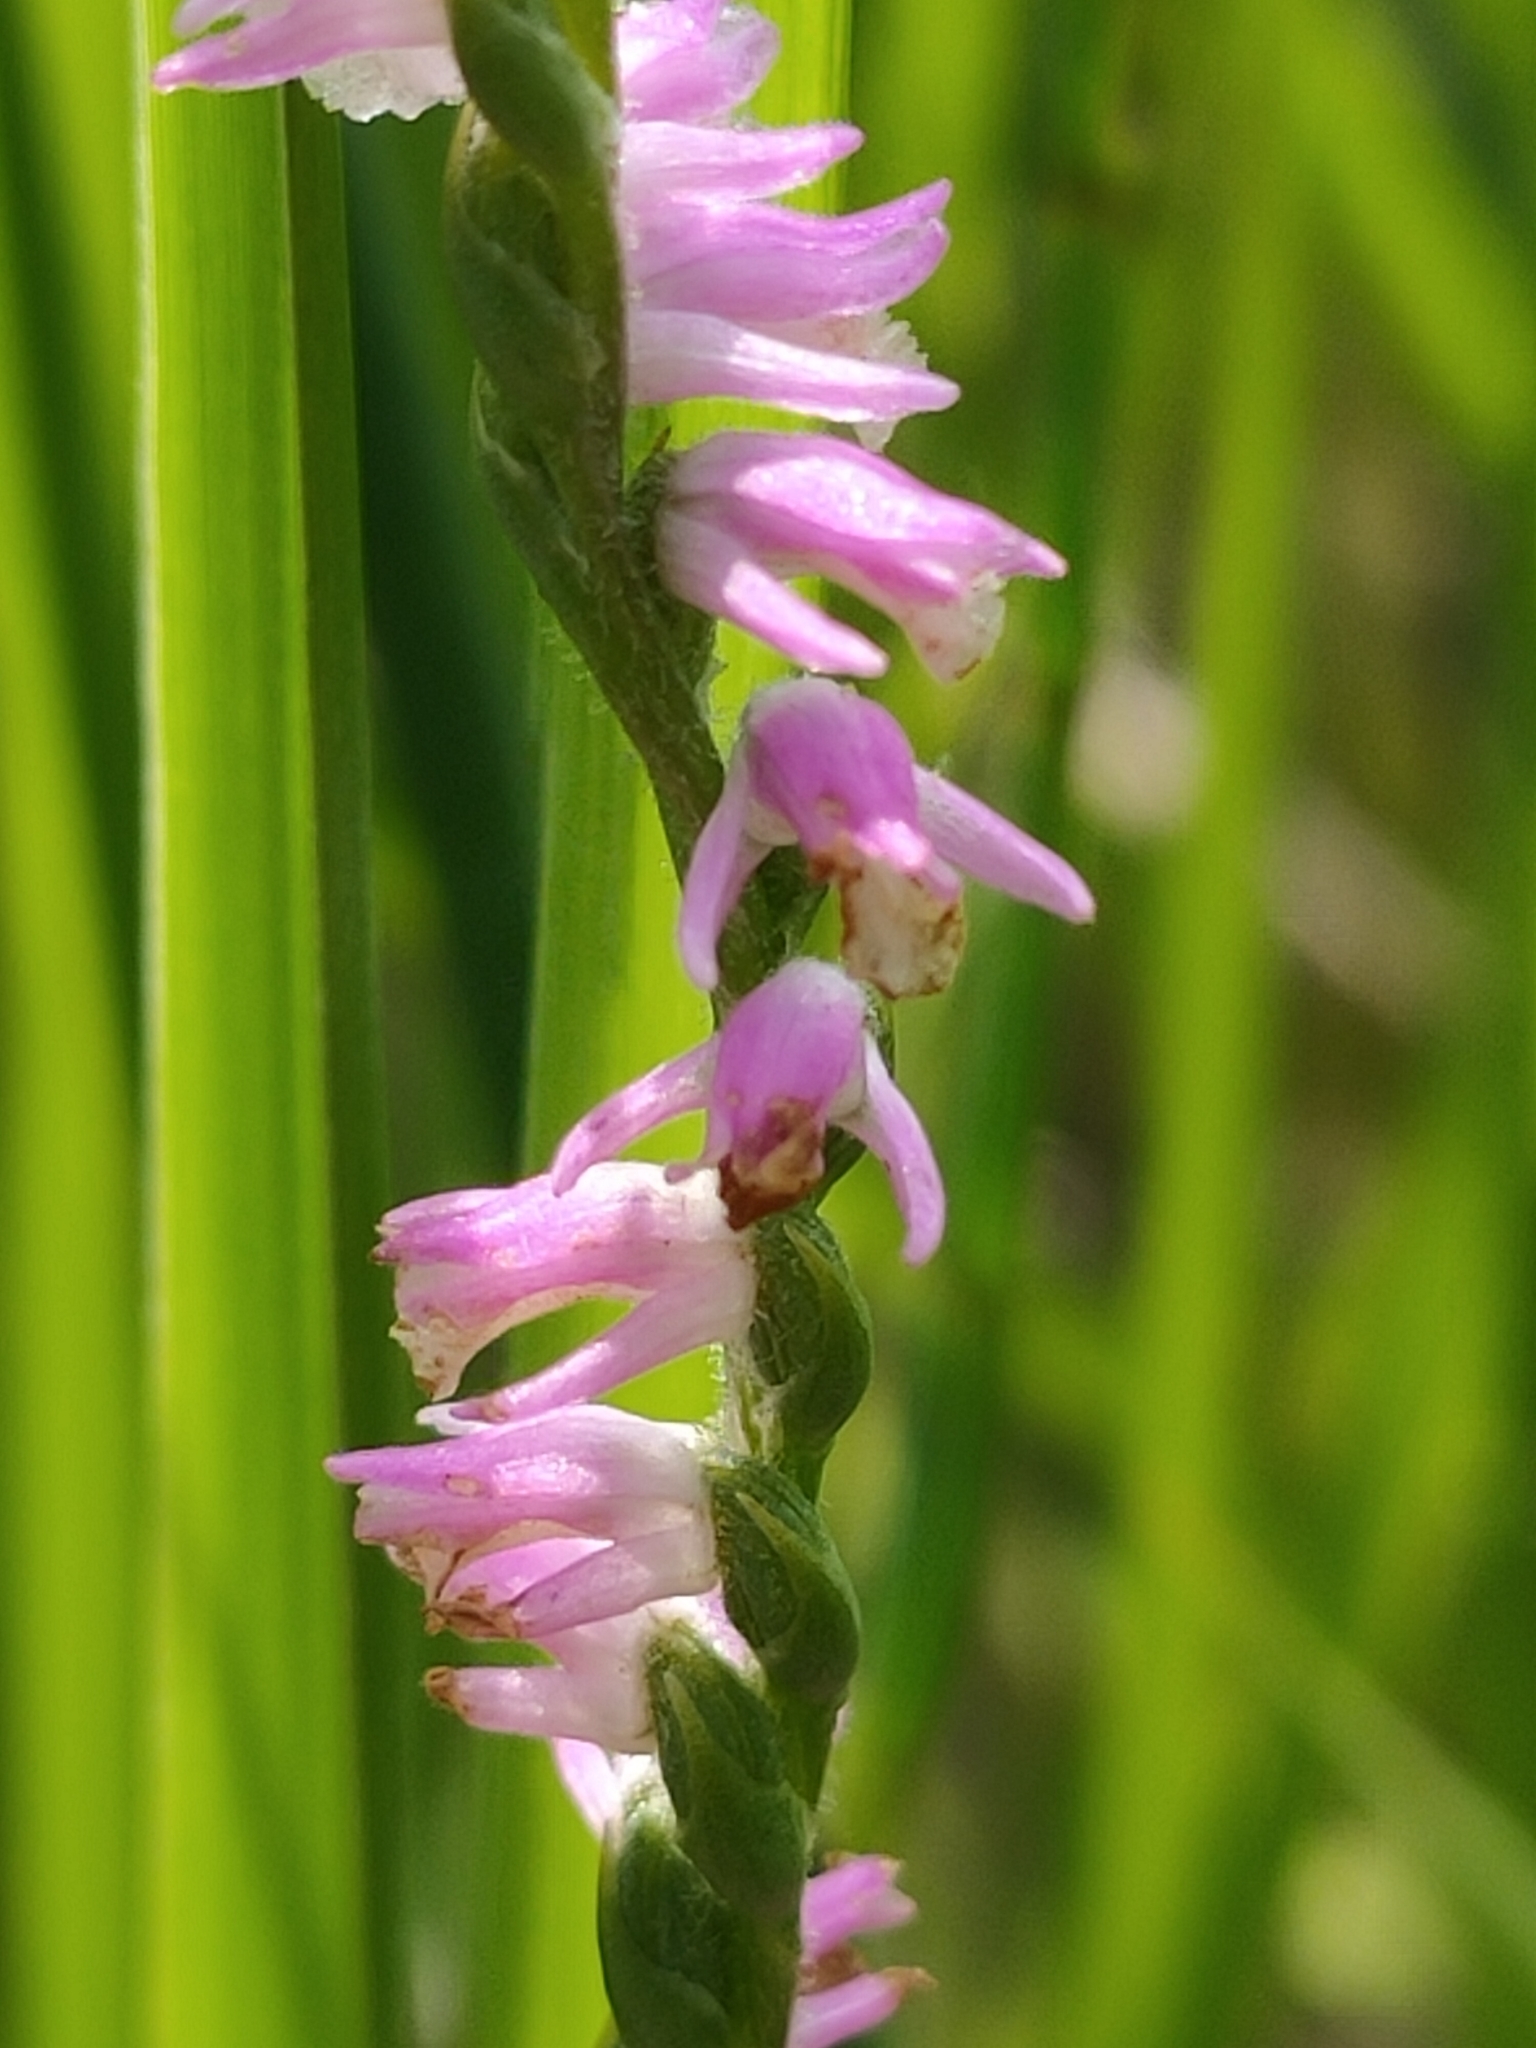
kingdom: Plantae
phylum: Tracheophyta
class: Liliopsida
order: Asparagales
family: Orchidaceae
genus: Spiranthes
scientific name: Spiranthes australis
